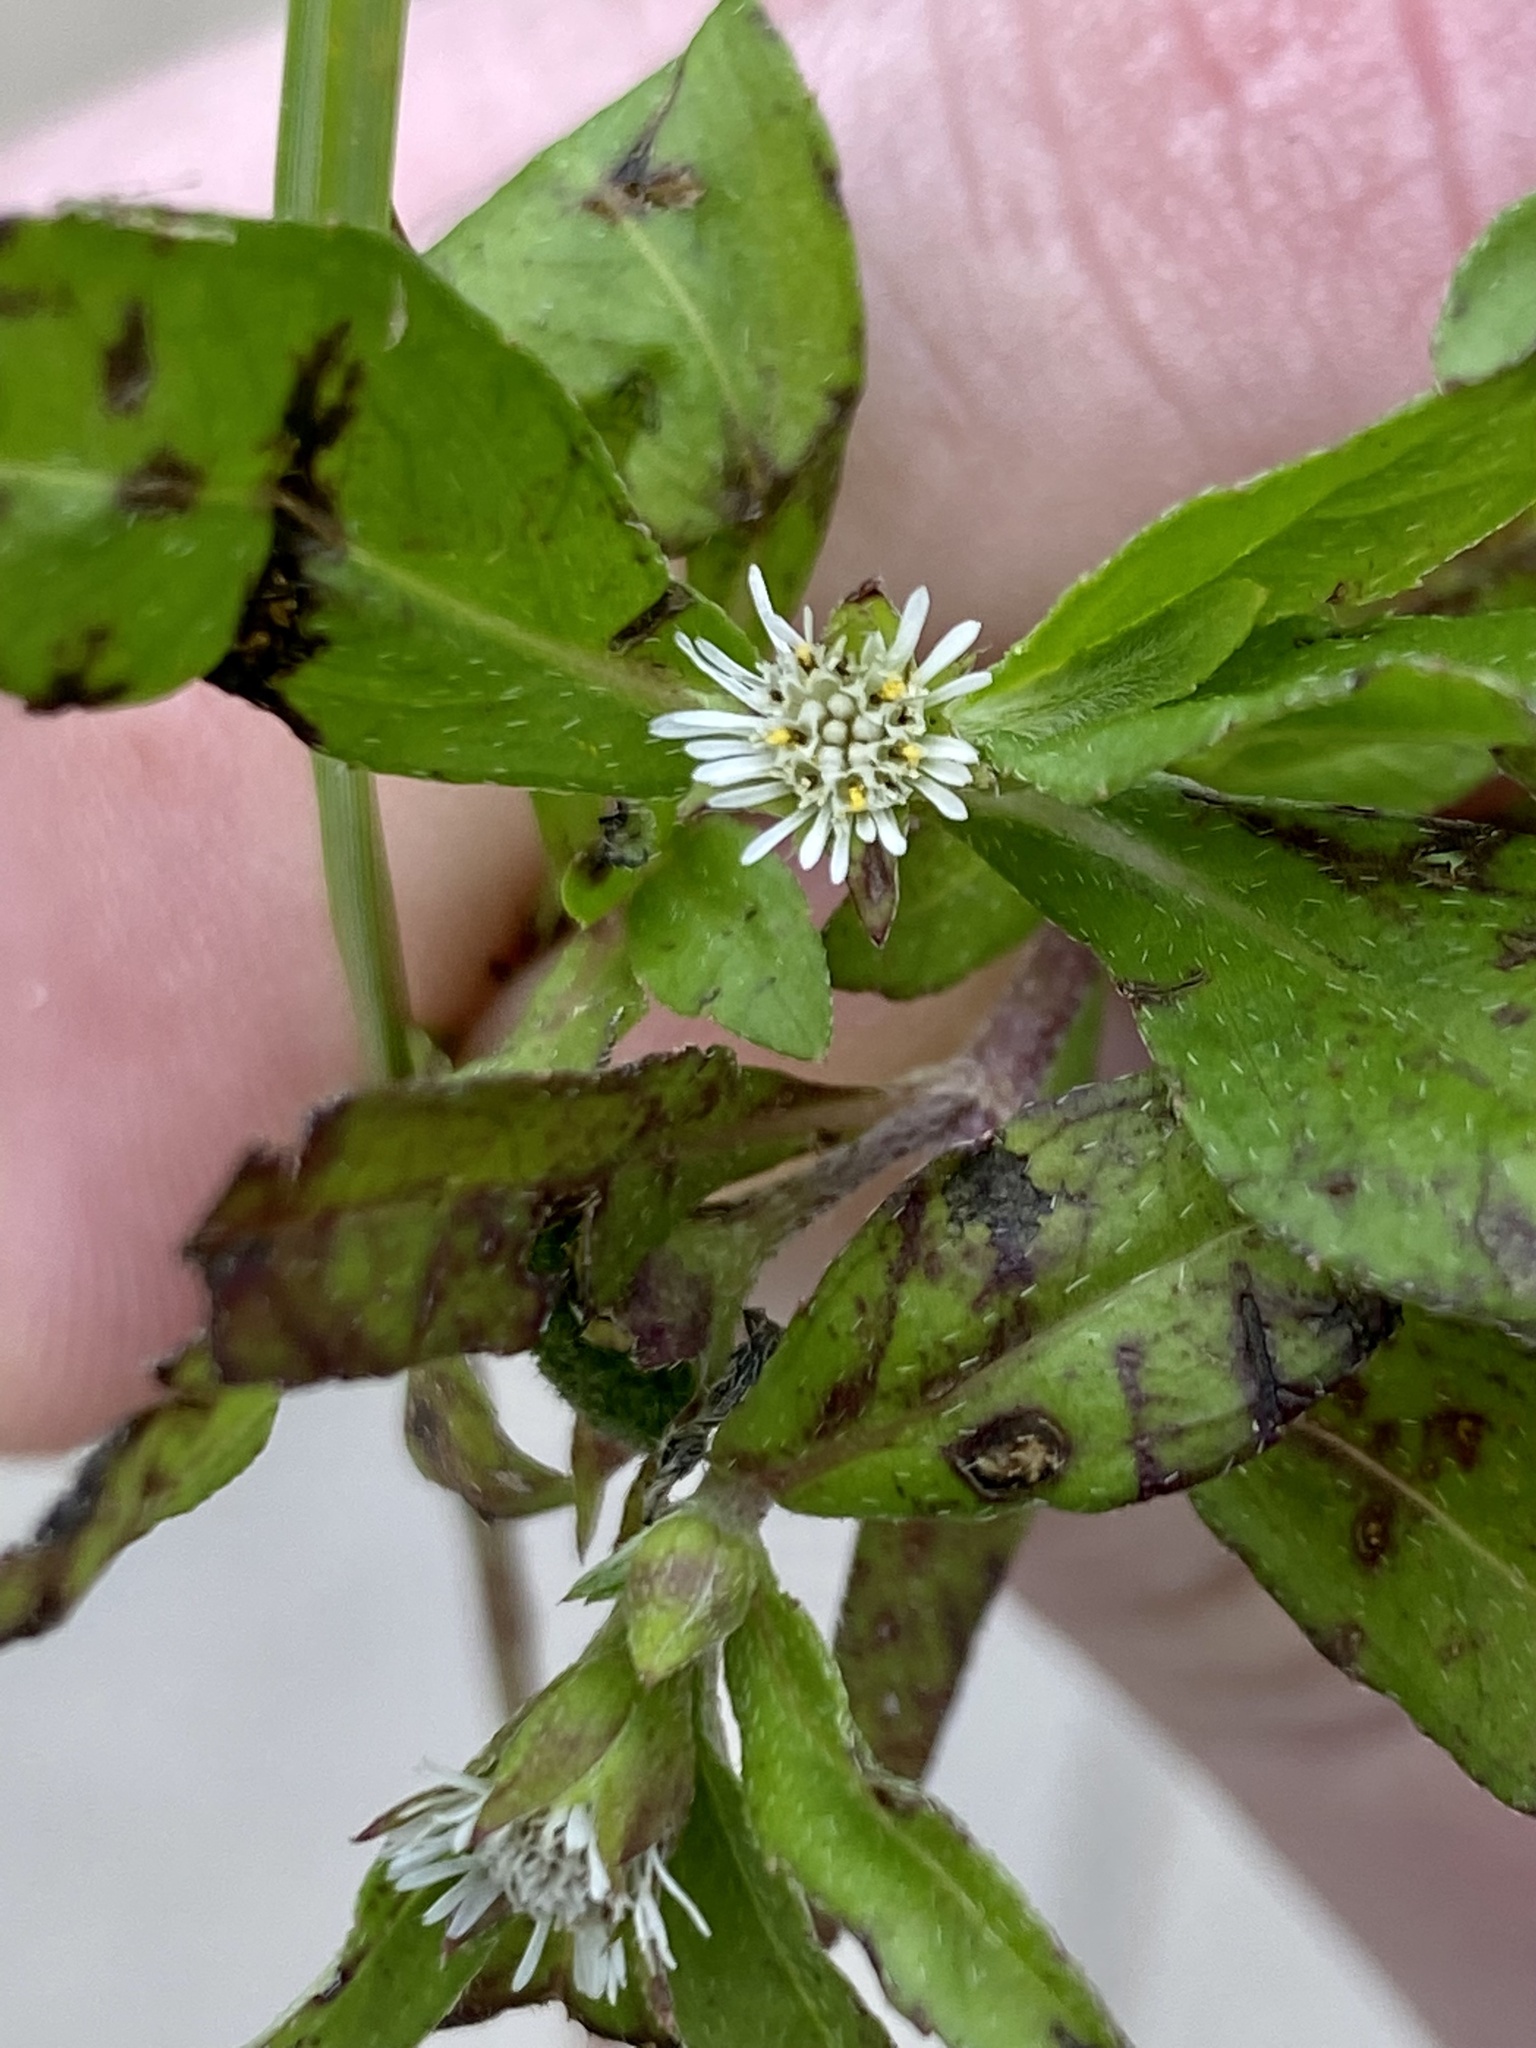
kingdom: Plantae
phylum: Tracheophyta
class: Magnoliopsida
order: Asterales
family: Asteraceae
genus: Eclipta
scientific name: Eclipta prostrata
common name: False daisy
